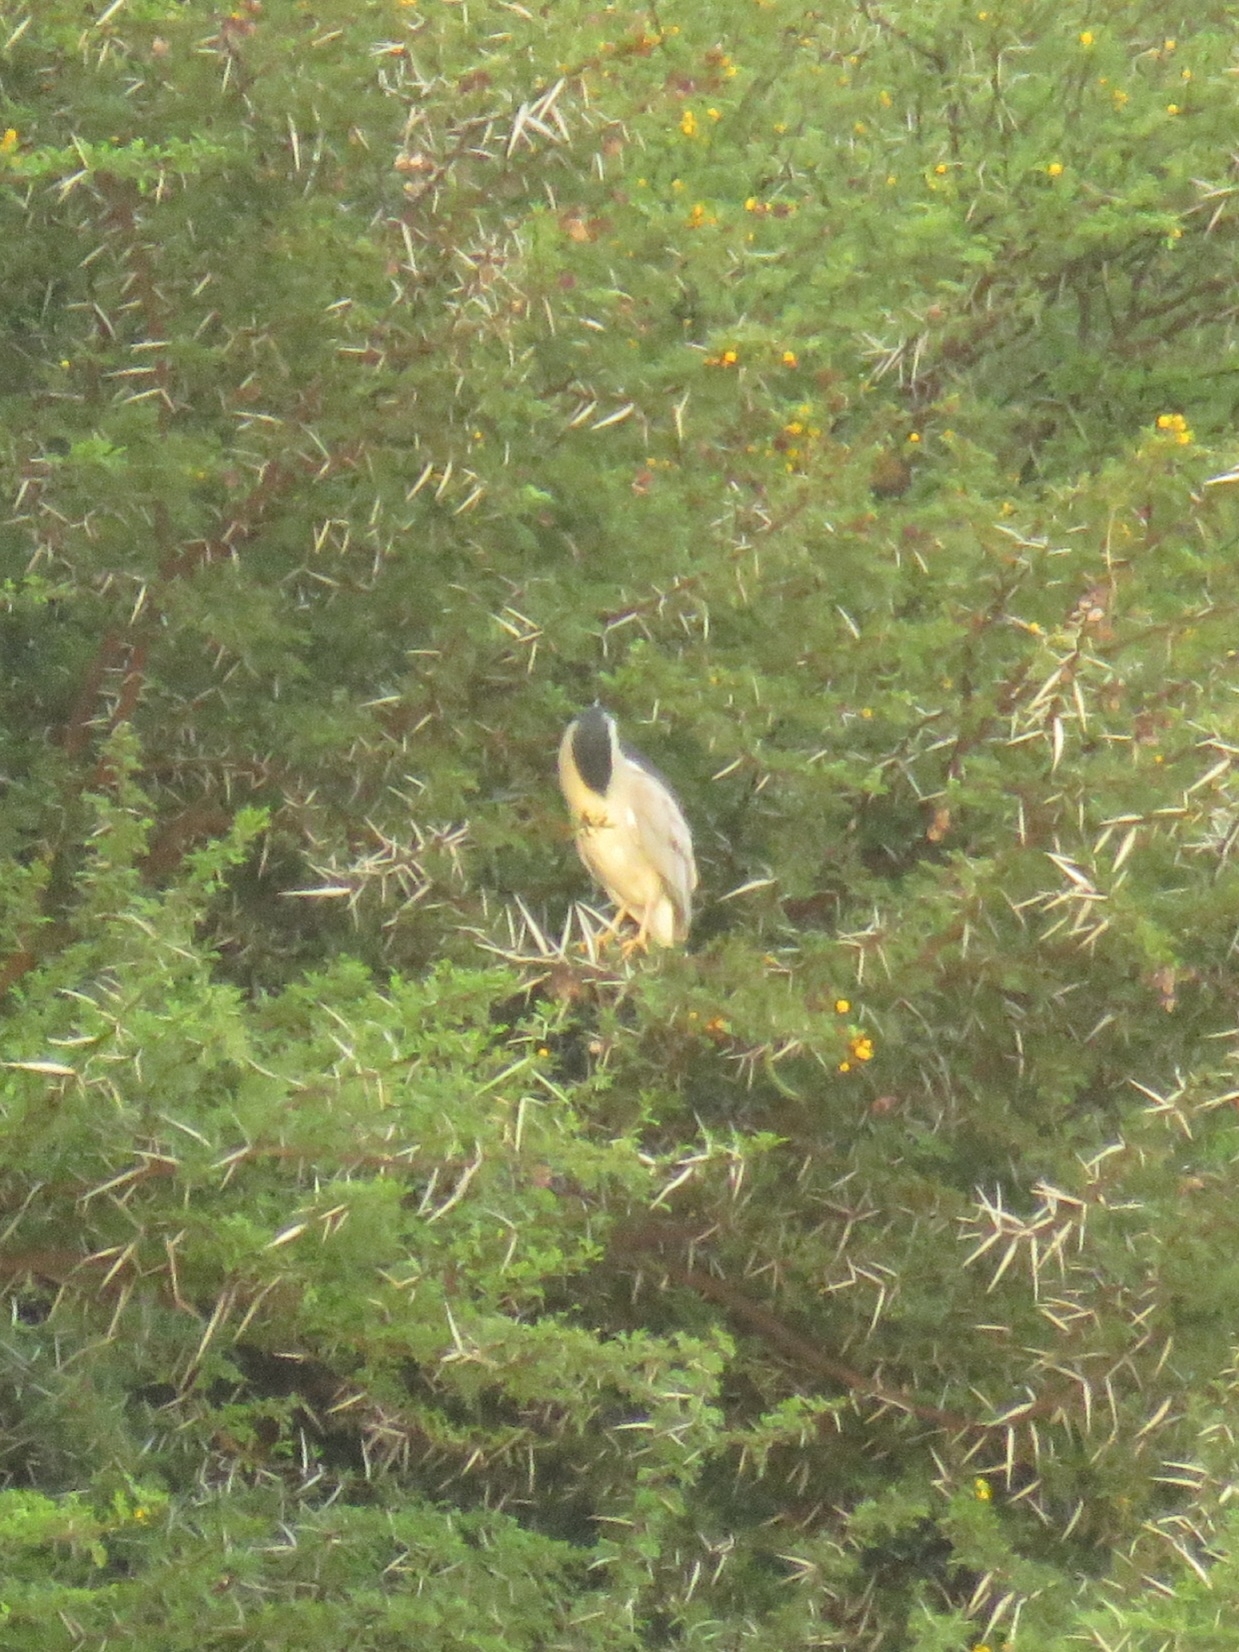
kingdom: Animalia
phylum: Chordata
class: Aves
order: Pelecaniformes
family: Ardeidae
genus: Nycticorax
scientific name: Nycticorax nycticorax
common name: Black-crowned night heron
